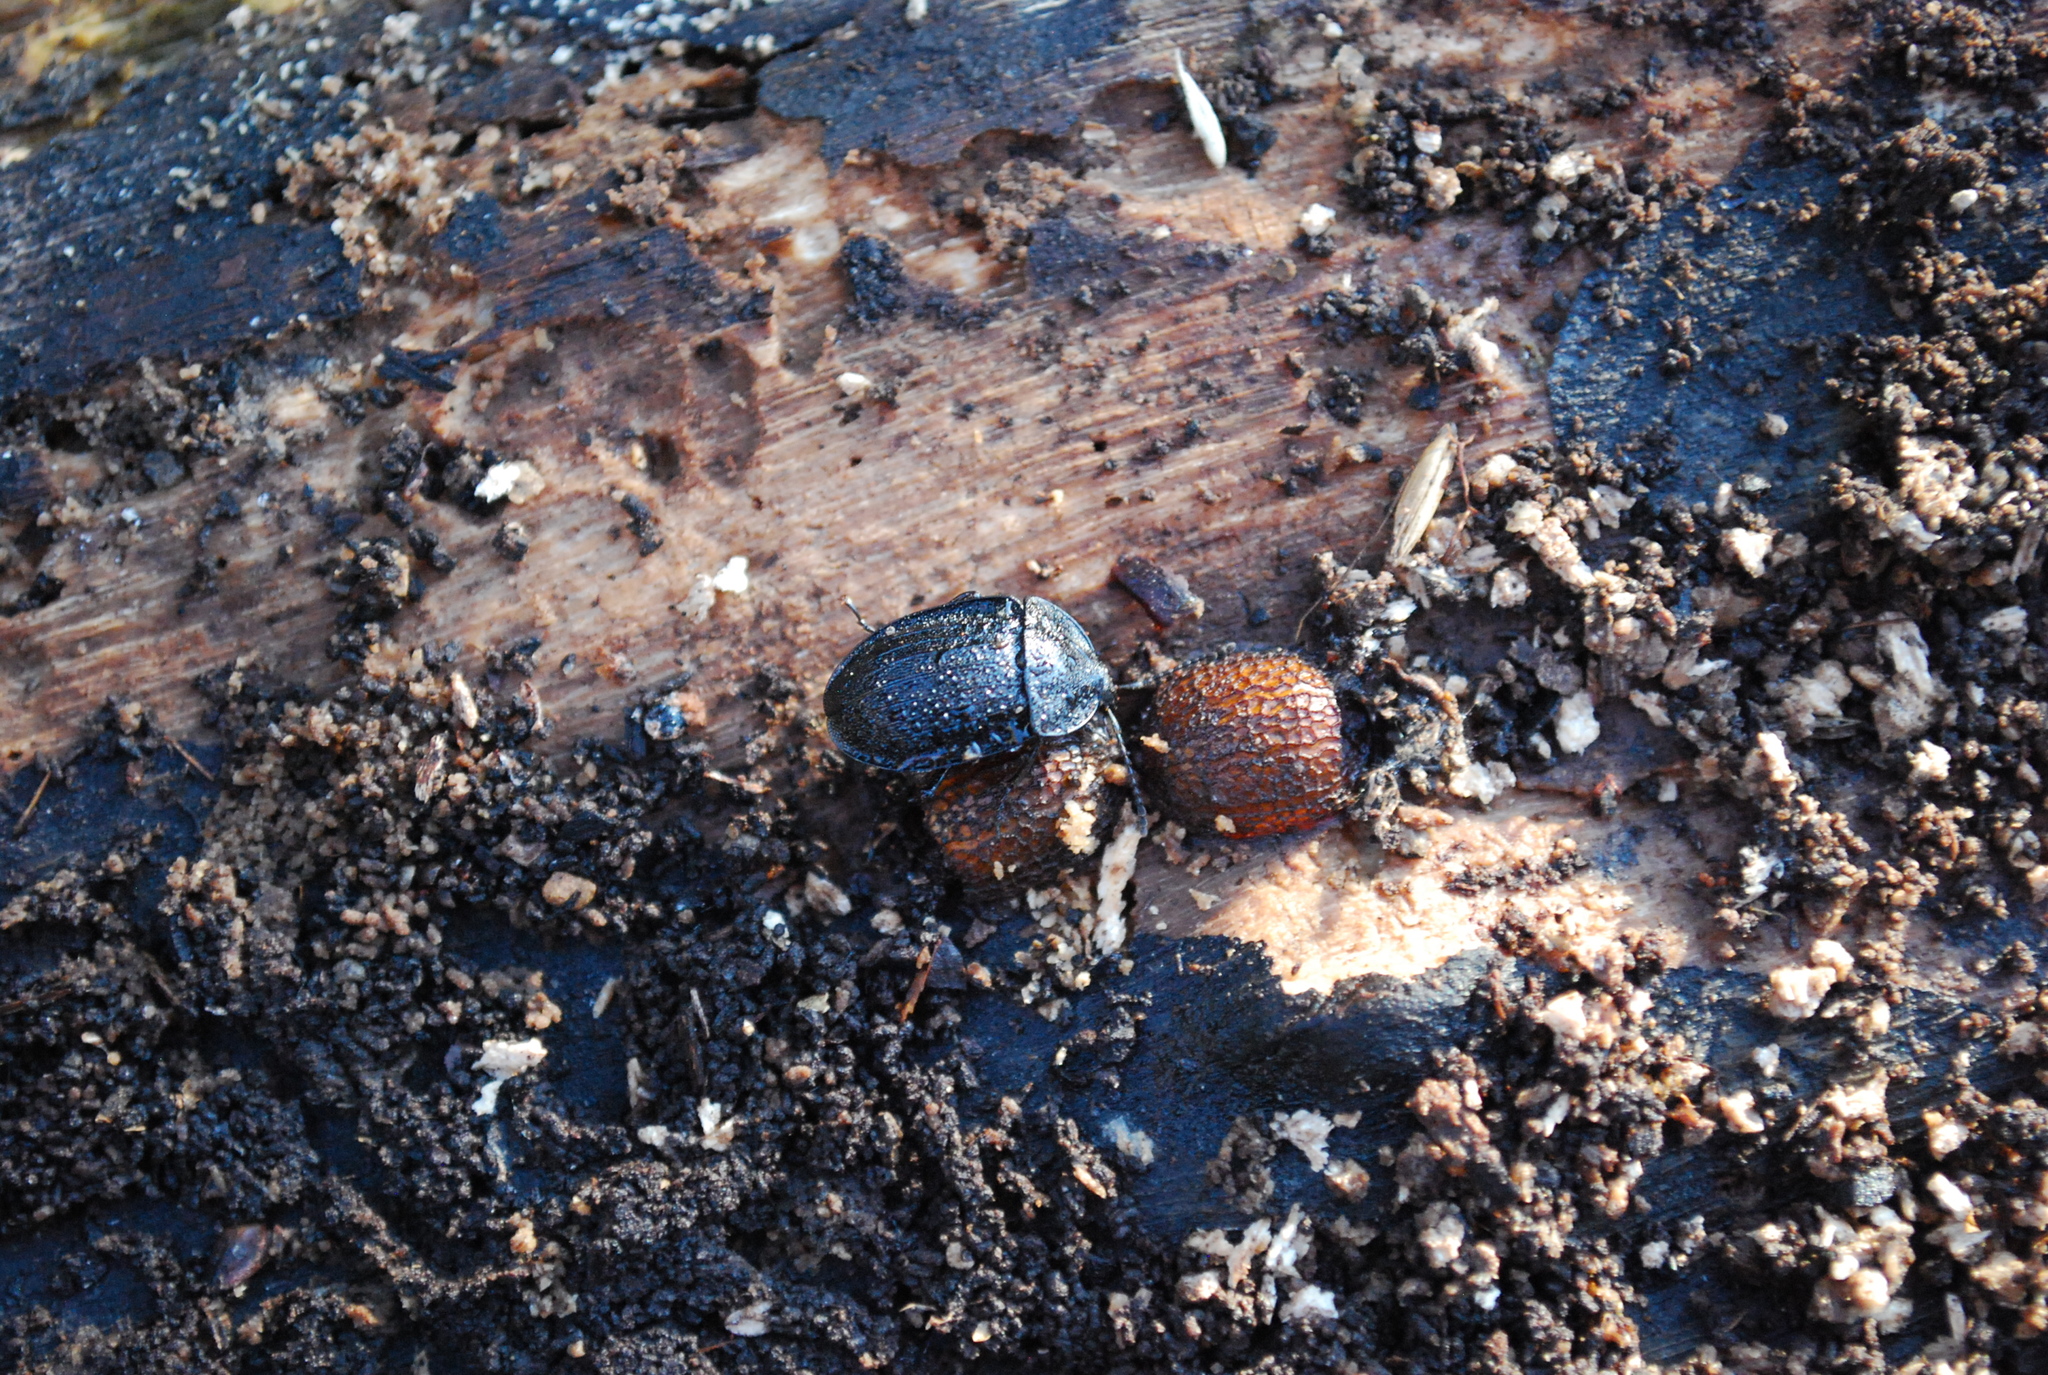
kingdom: Animalia
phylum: Arthropoda
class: Insecta
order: Coleoptera
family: Staphylinidae
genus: Silpha
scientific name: Silpha atrata
